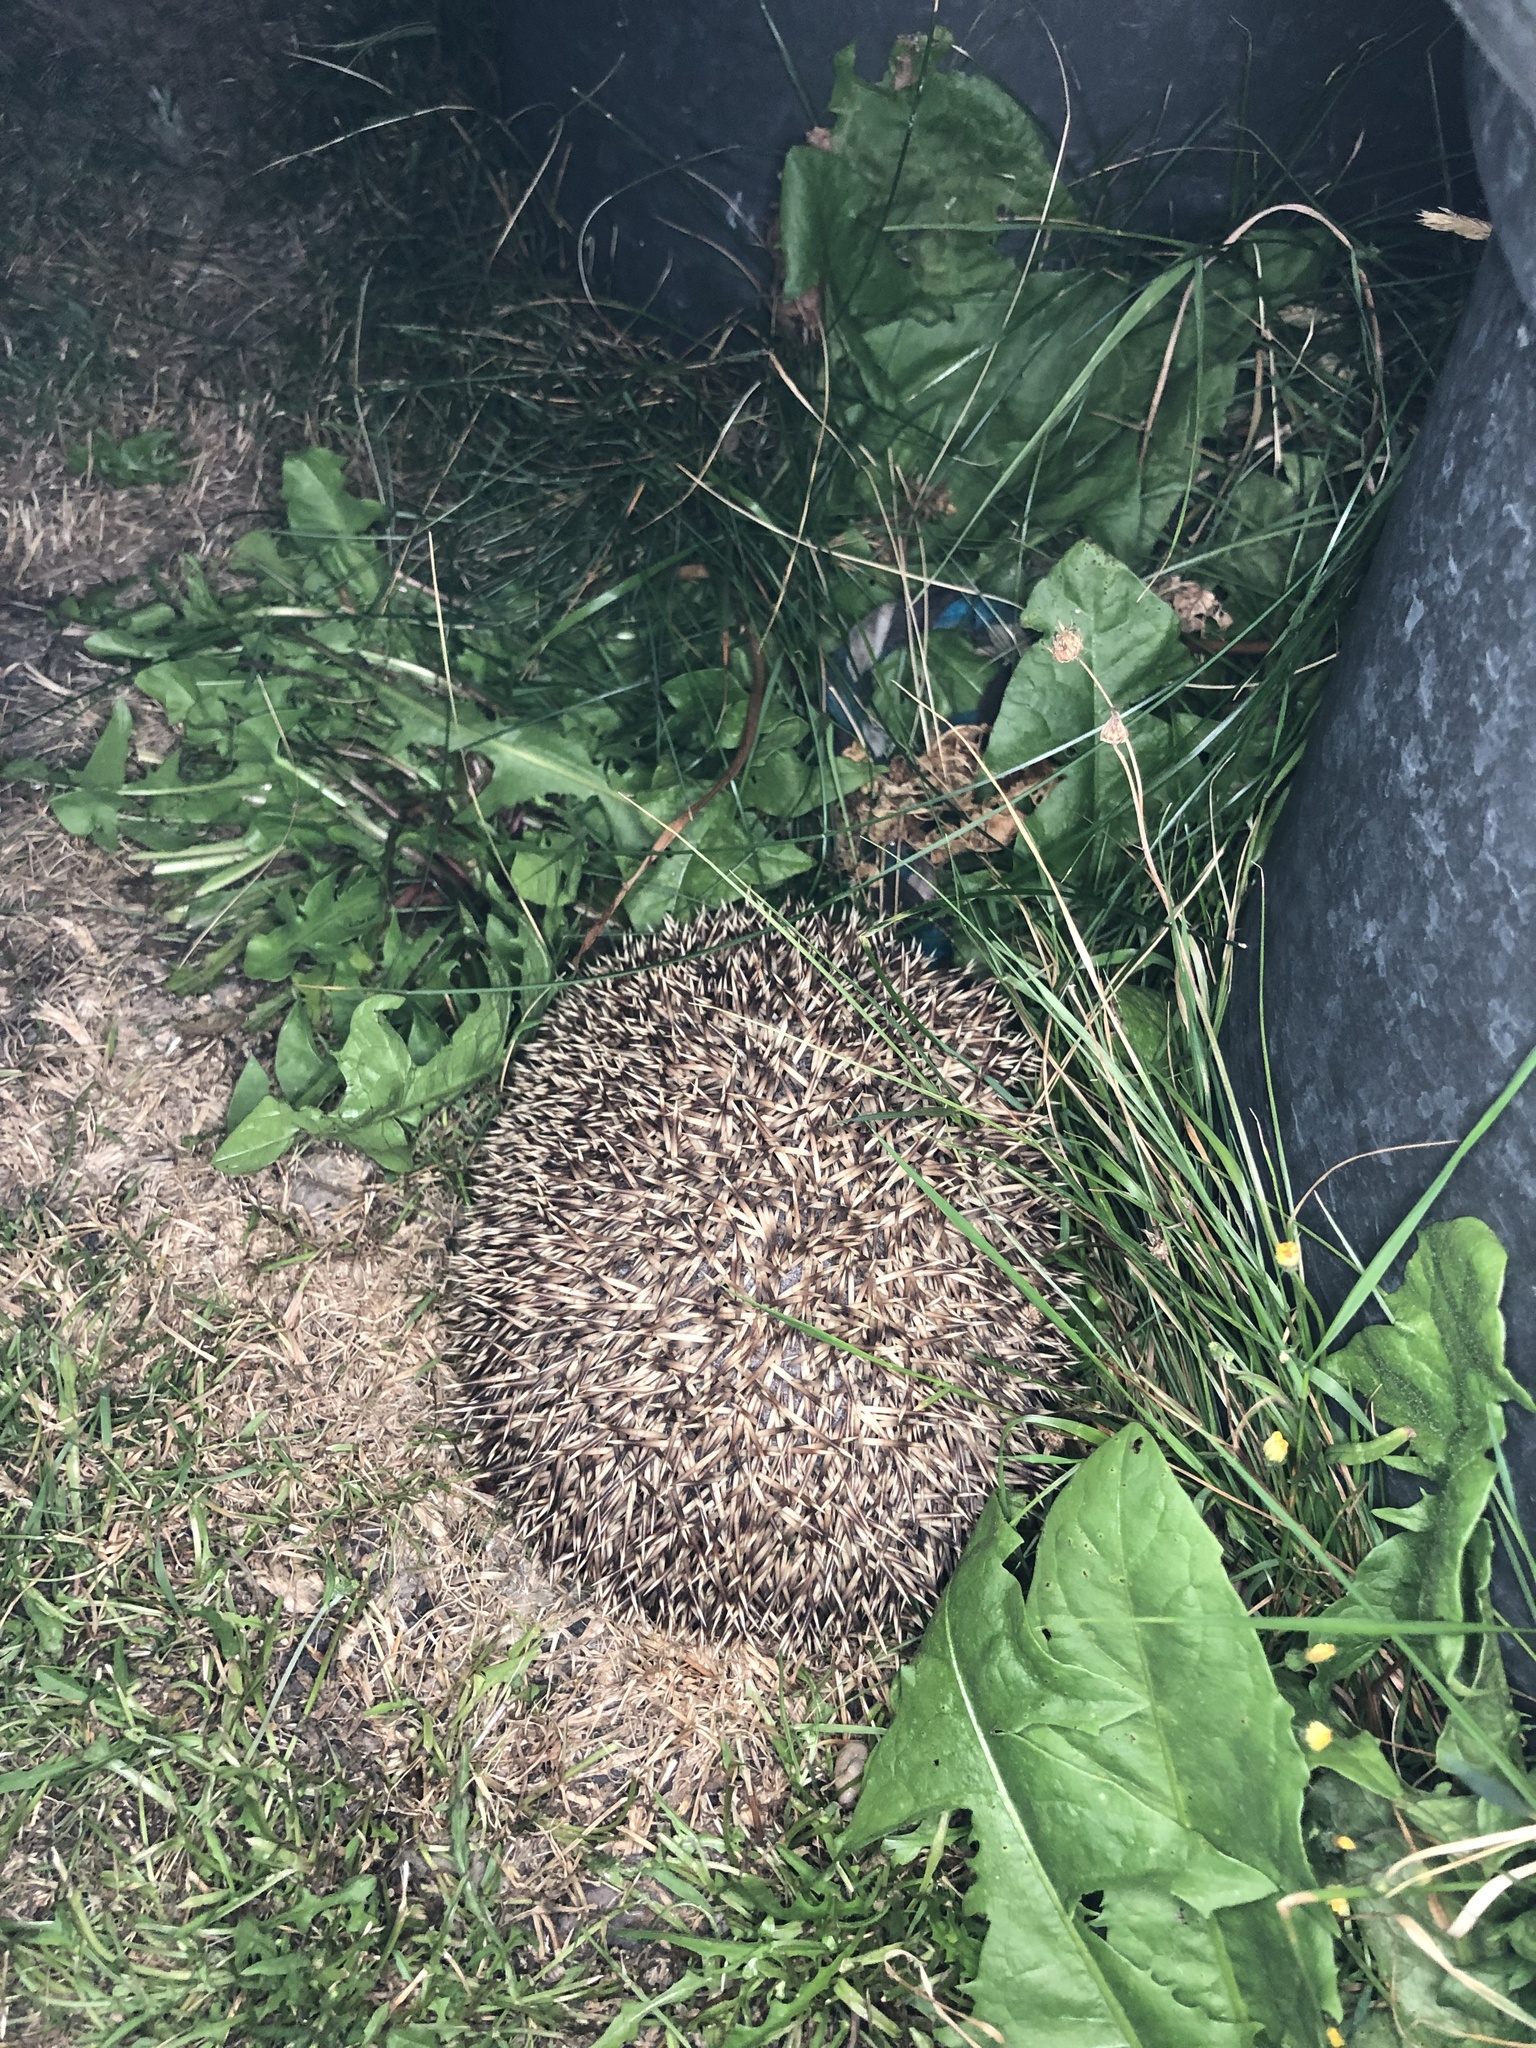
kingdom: Animalia
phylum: Chordata
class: Mammalia
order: Erinaceomorpha
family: Erinaceidae
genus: Erinaceus
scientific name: Erinaceus europaeus
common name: West european hedgehog
